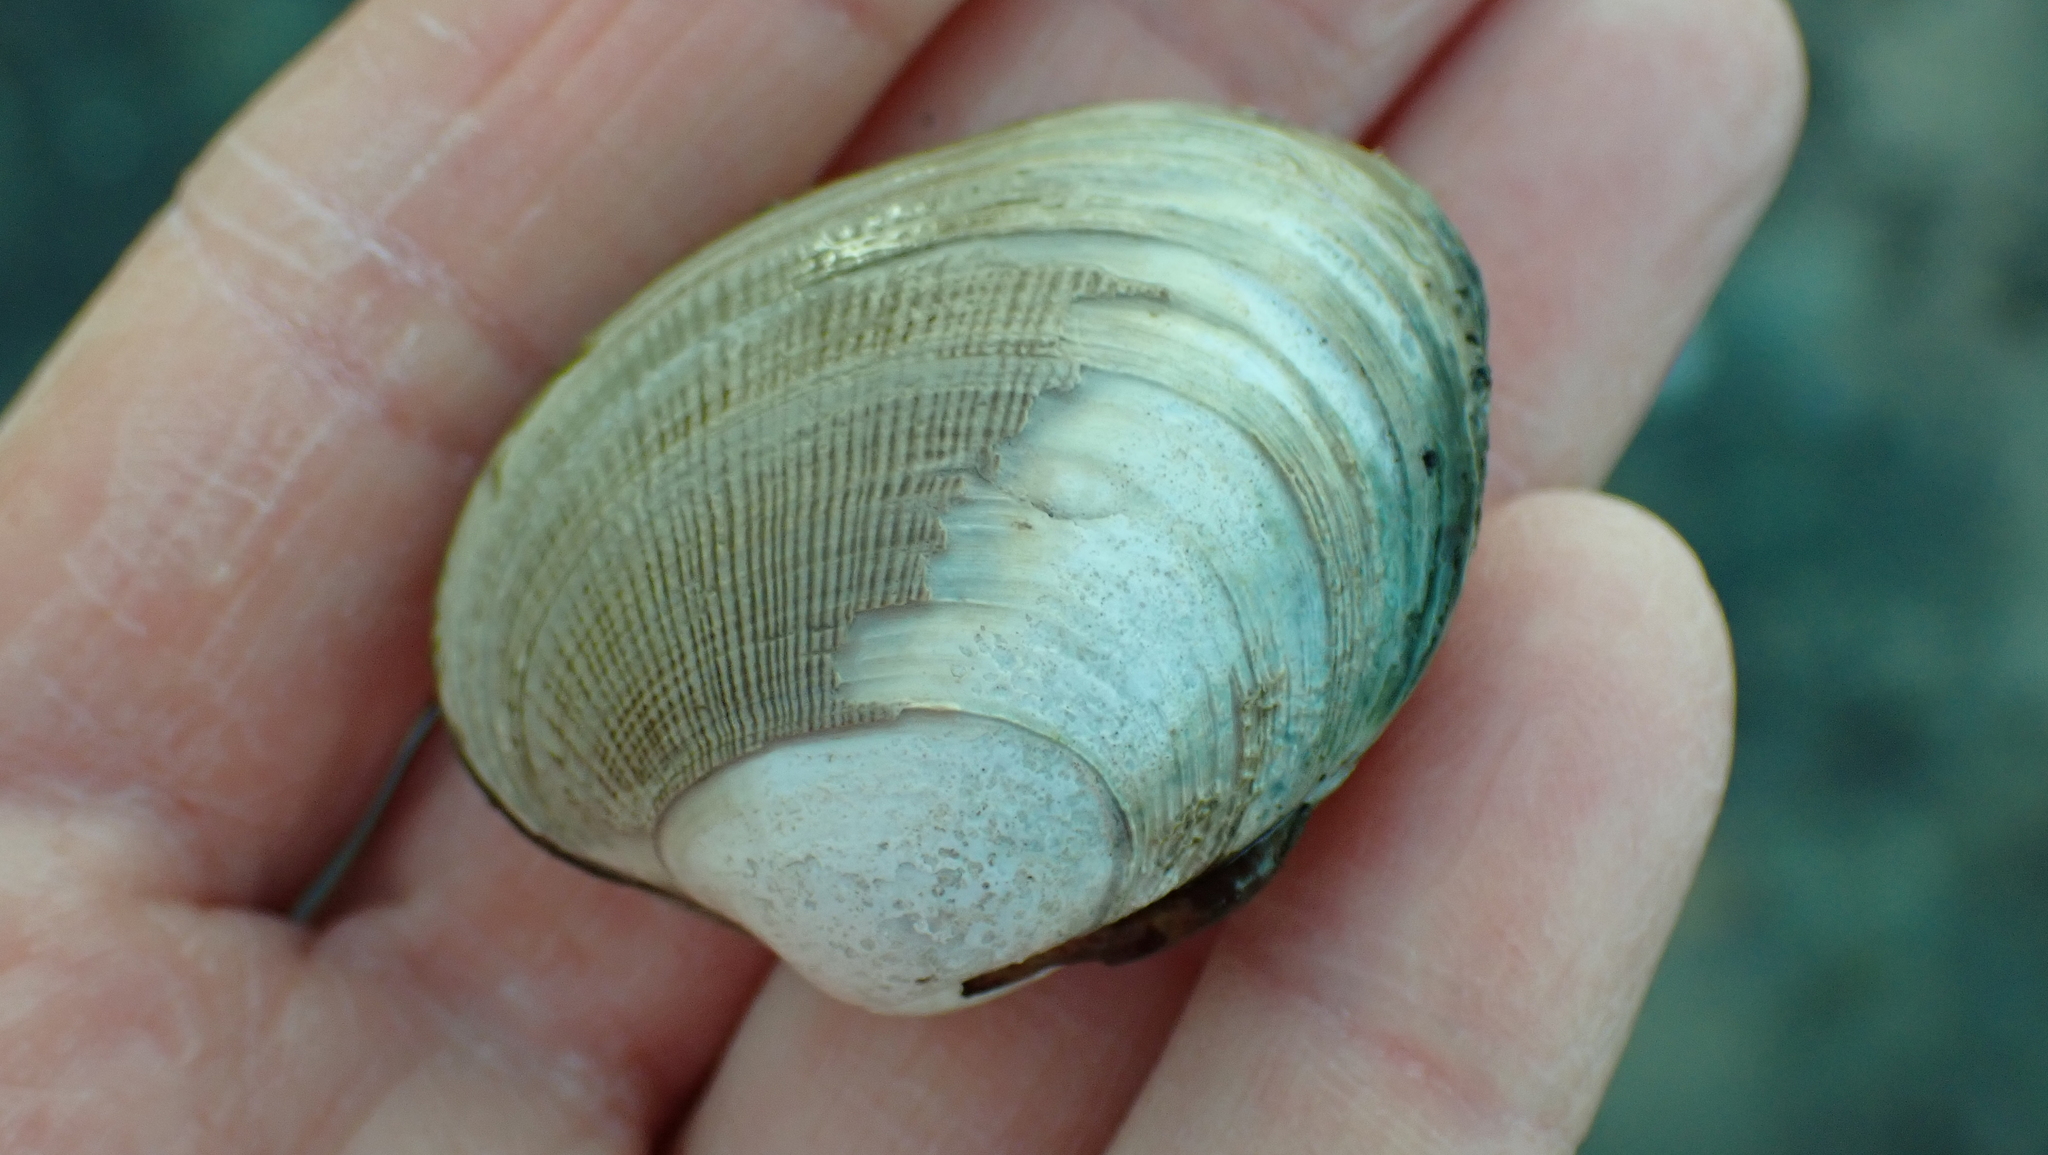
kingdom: Animalia
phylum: Mollusca
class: Bivalvia
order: Venerida
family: Veneridae
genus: Ruditapes
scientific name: Ruditapes philippinarum
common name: Manila clam
